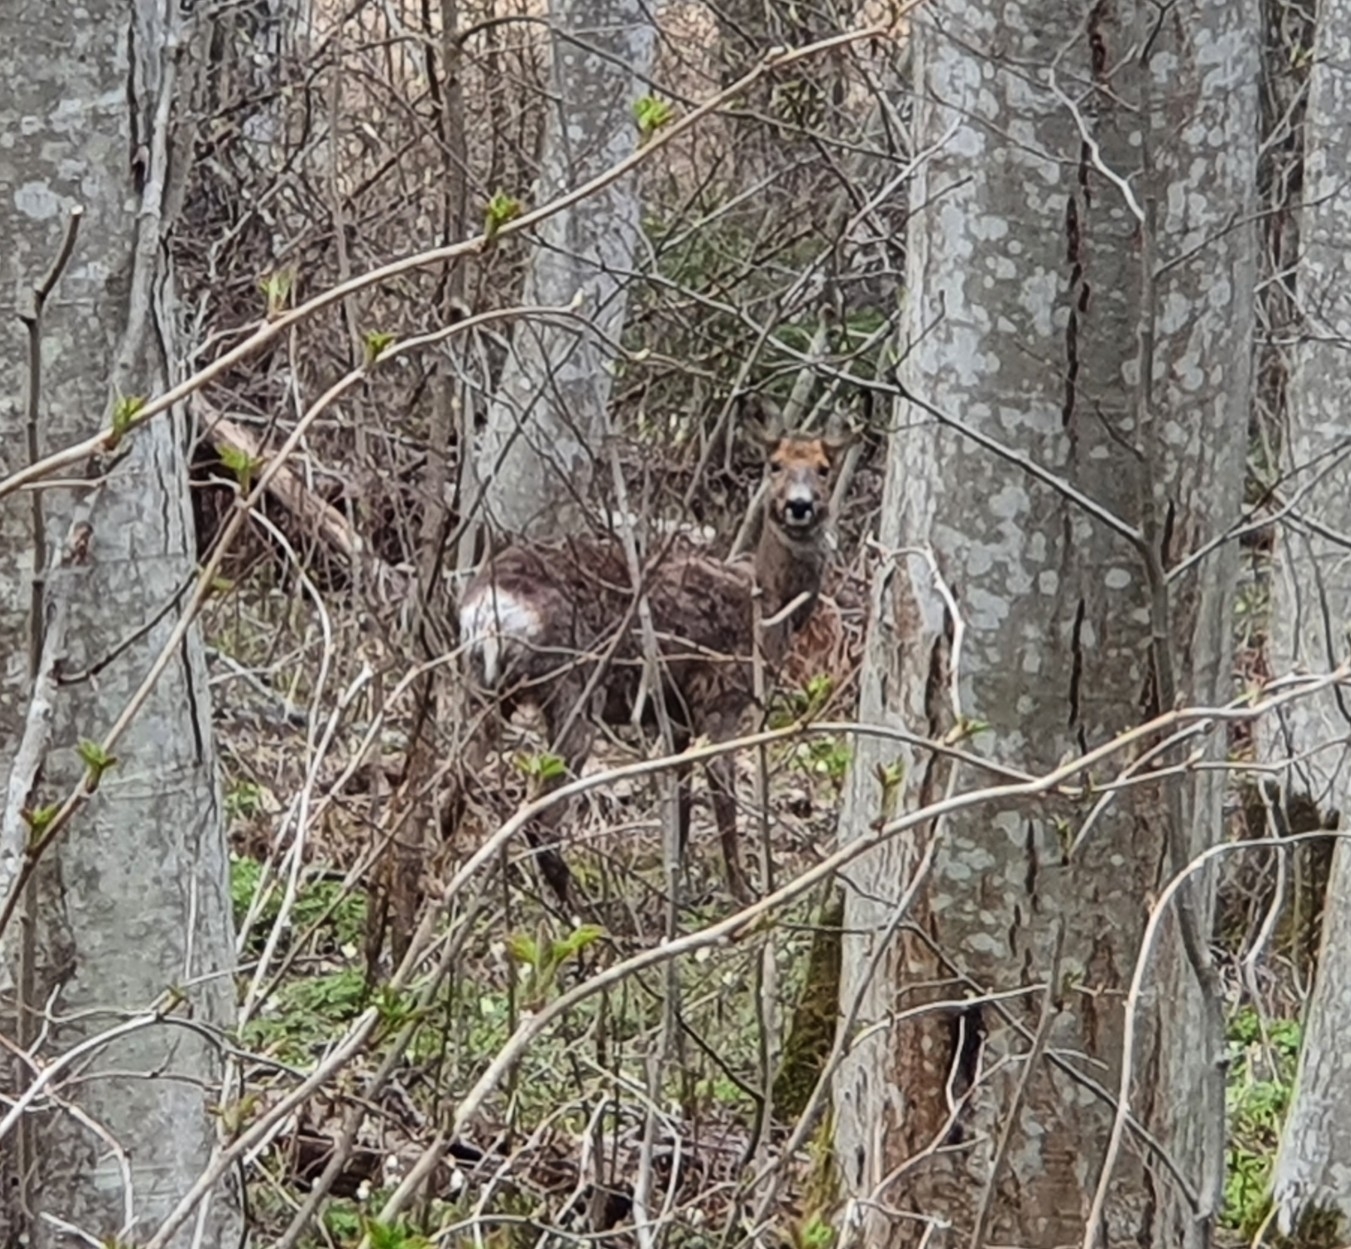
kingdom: Animalia
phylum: Chordata
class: Mammalia
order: Artiodactyla
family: Cervidae
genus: Capreolus
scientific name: Capreolus capreolus
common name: Western roe deer
